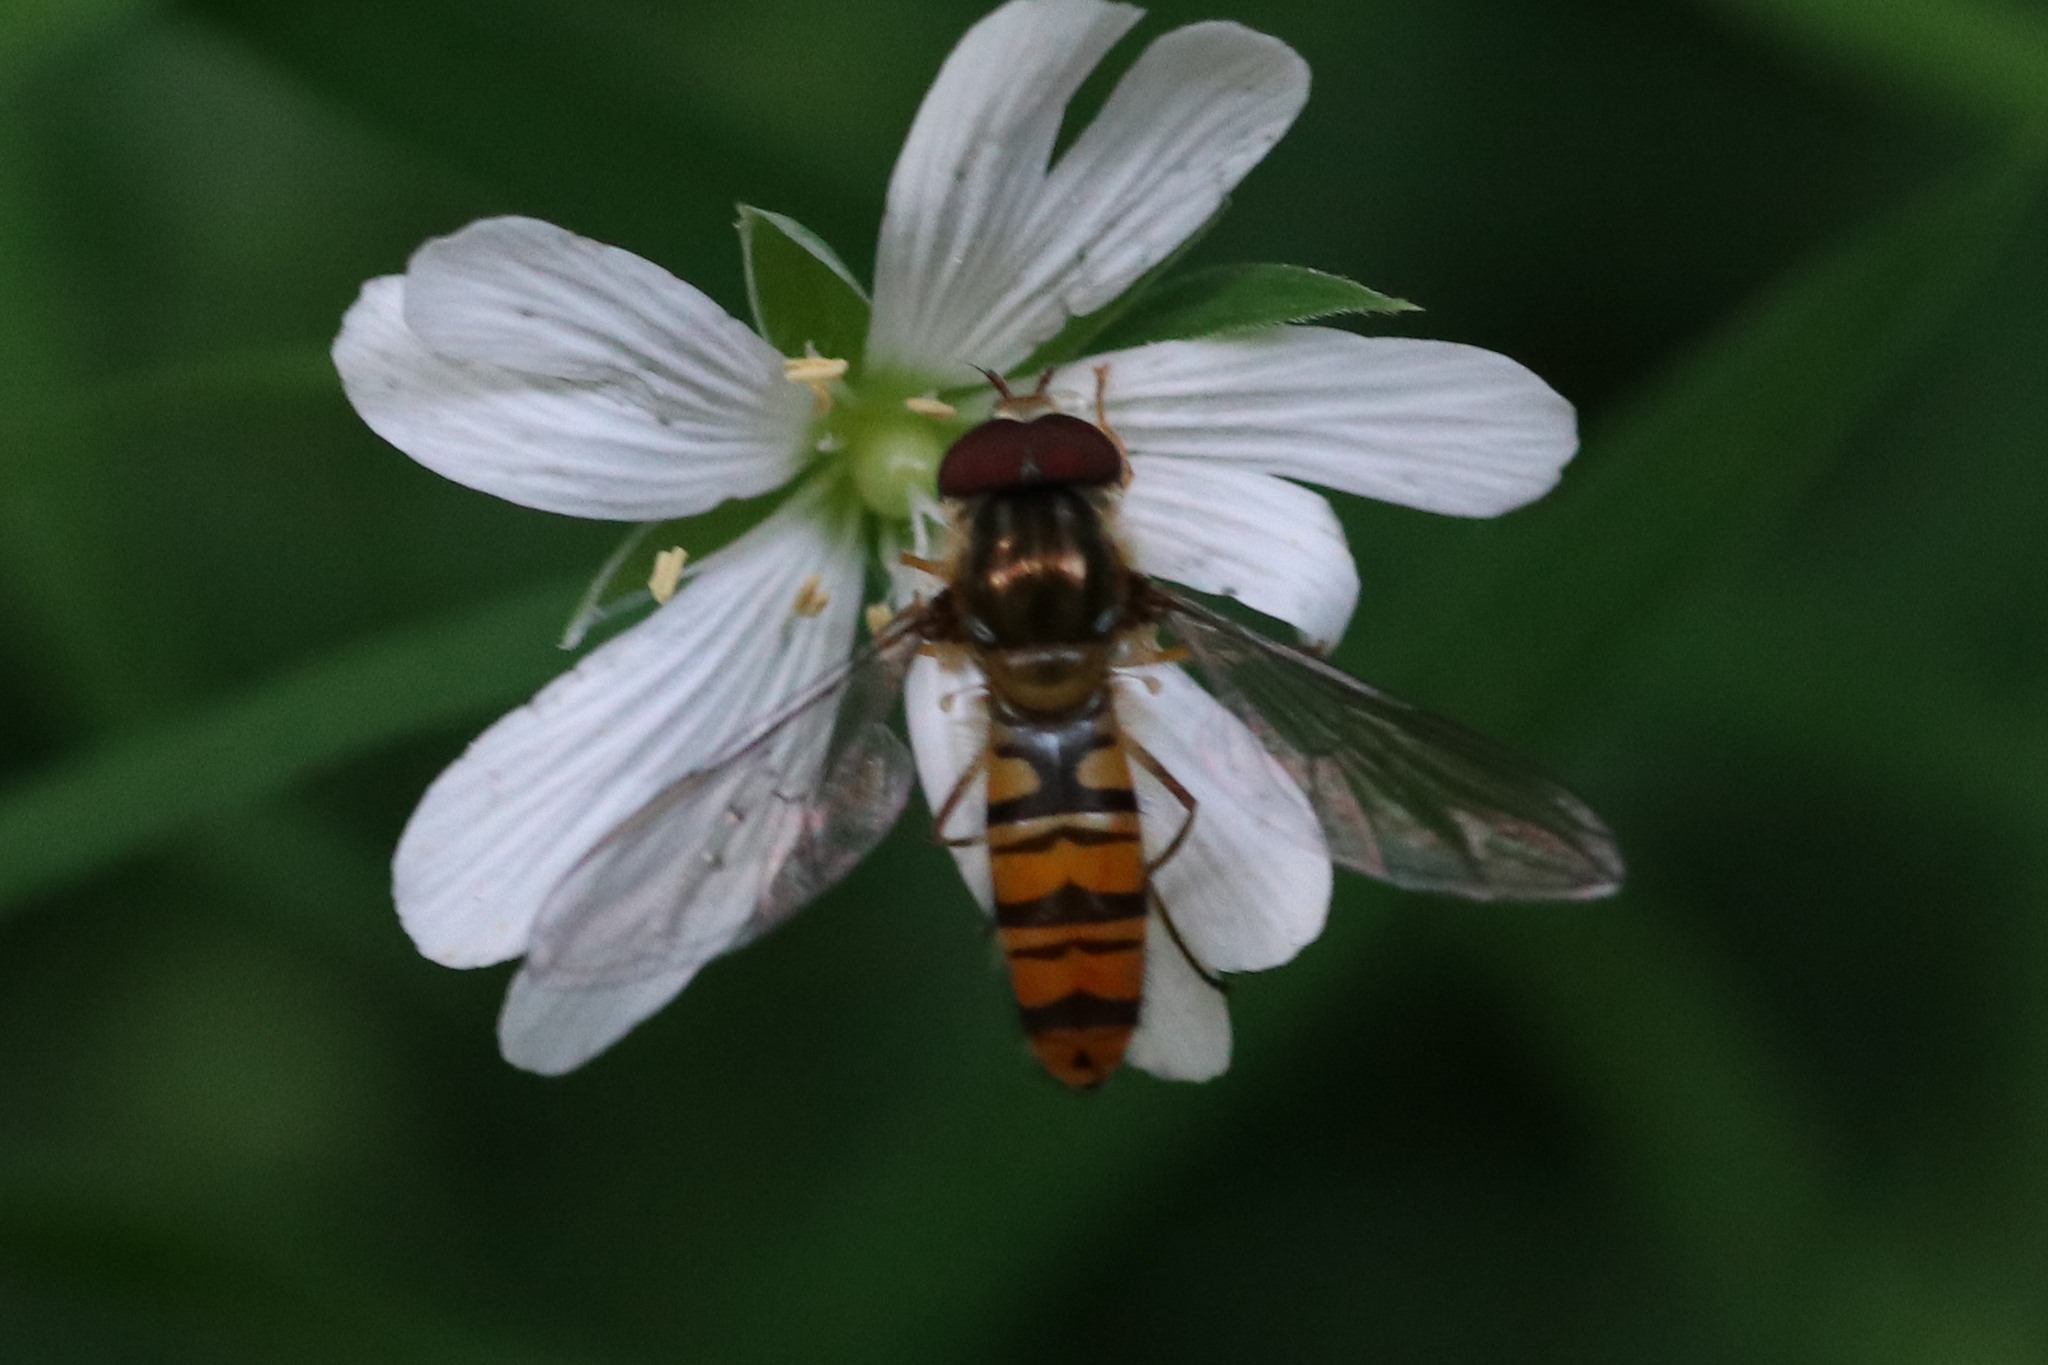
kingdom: Animalia
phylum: Arthropoda
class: Insecta
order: Diptera
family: Syrphidae
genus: Episyrphus
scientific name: Episyrphus balteatus
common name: Marmalade hoverfly
